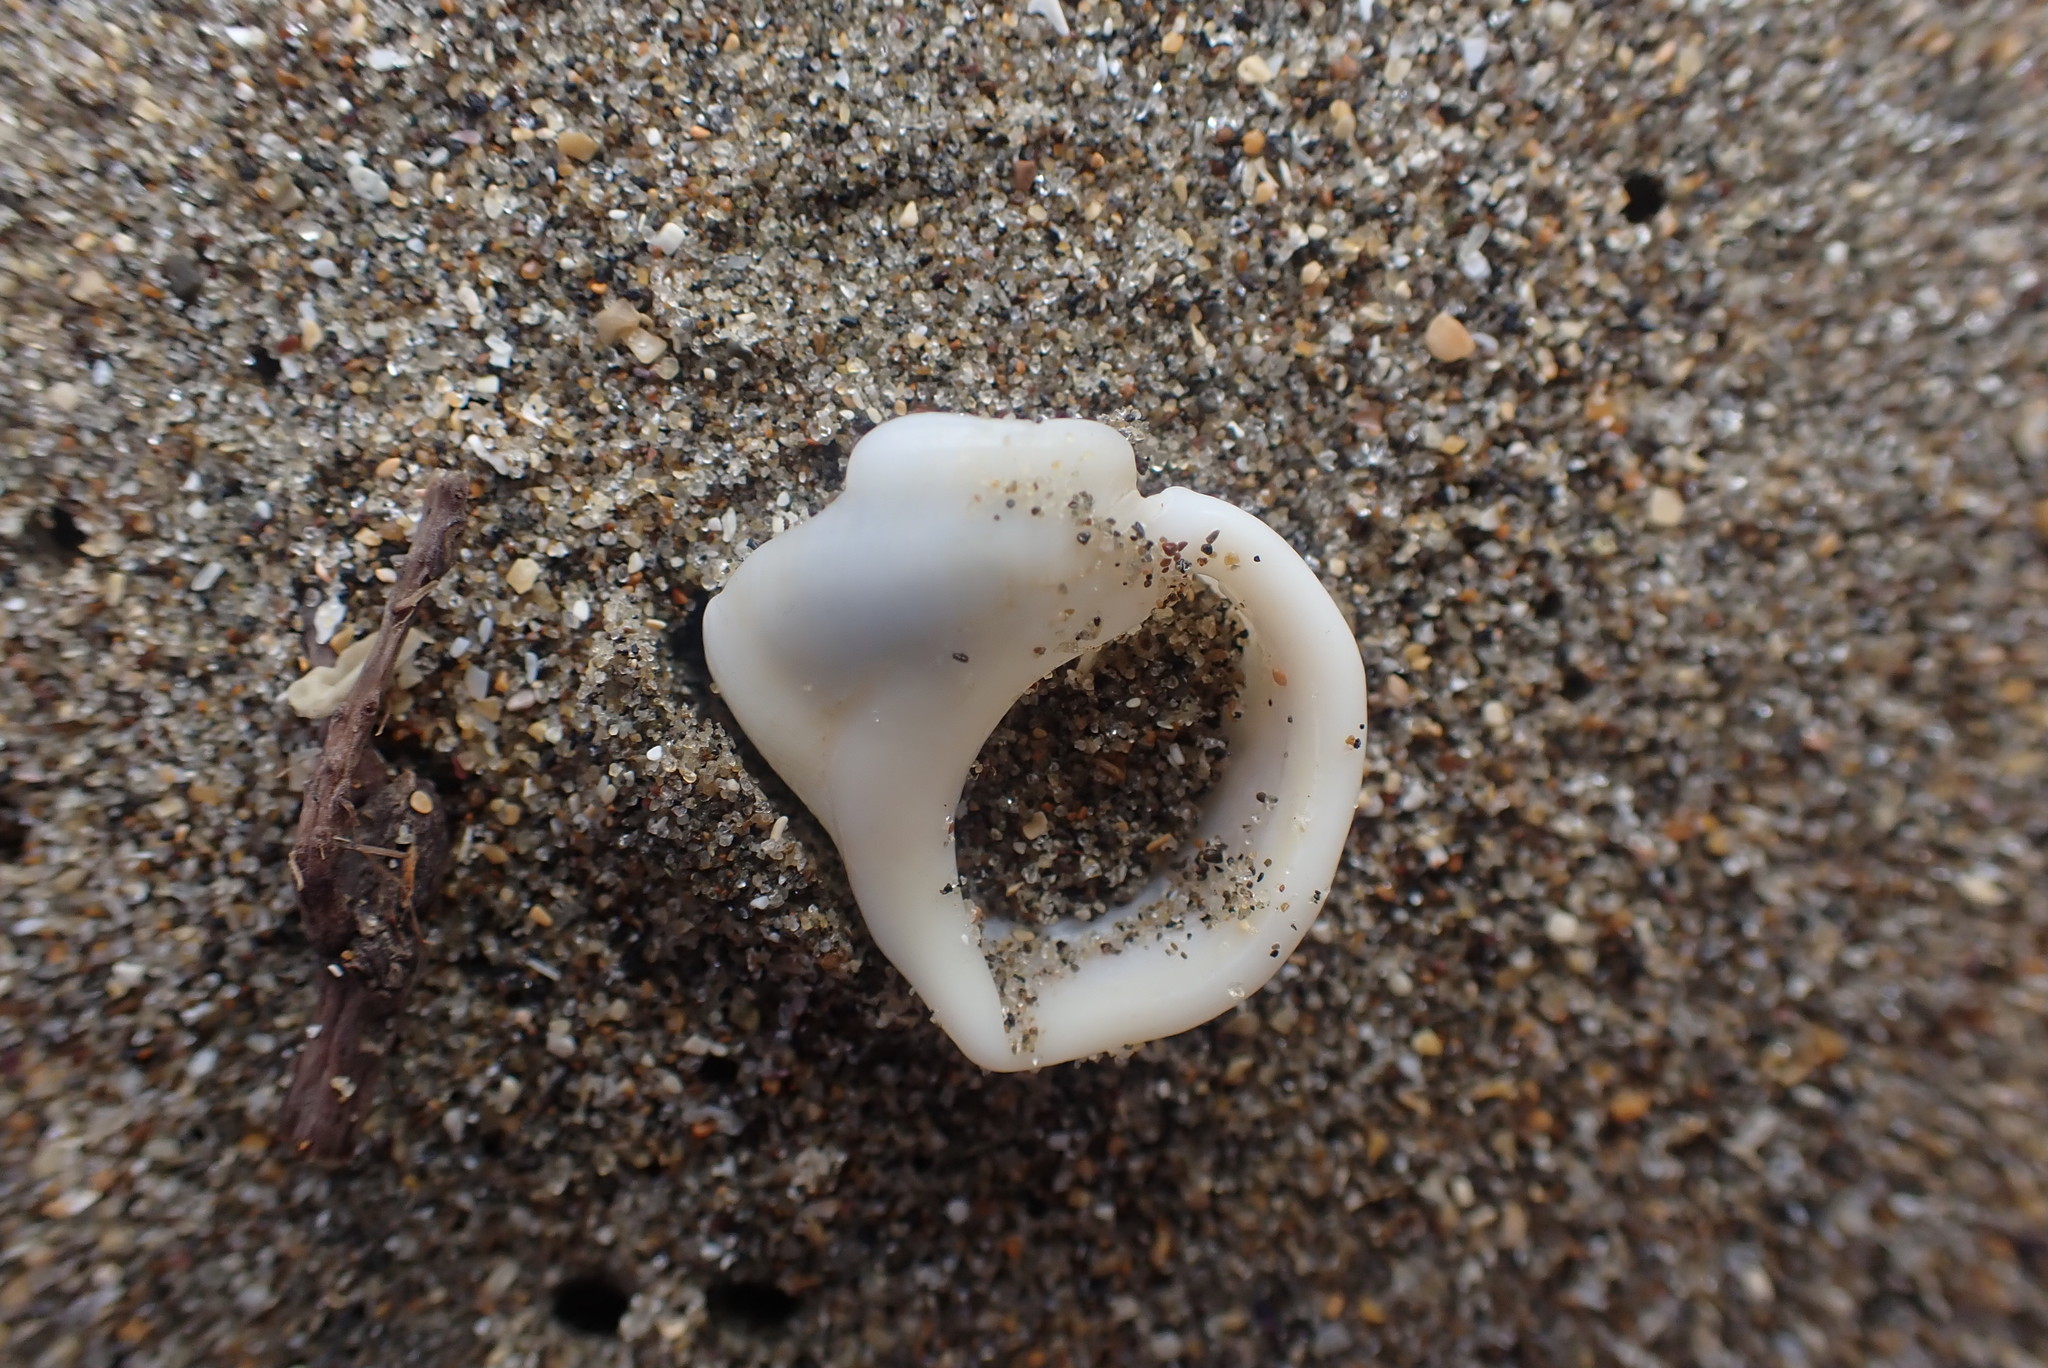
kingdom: Animalia
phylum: Mollusca
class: Gastropoda
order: Littorinimorpha
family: Struthiolariidae
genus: Pelicaria
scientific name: Pelicaria vermis
